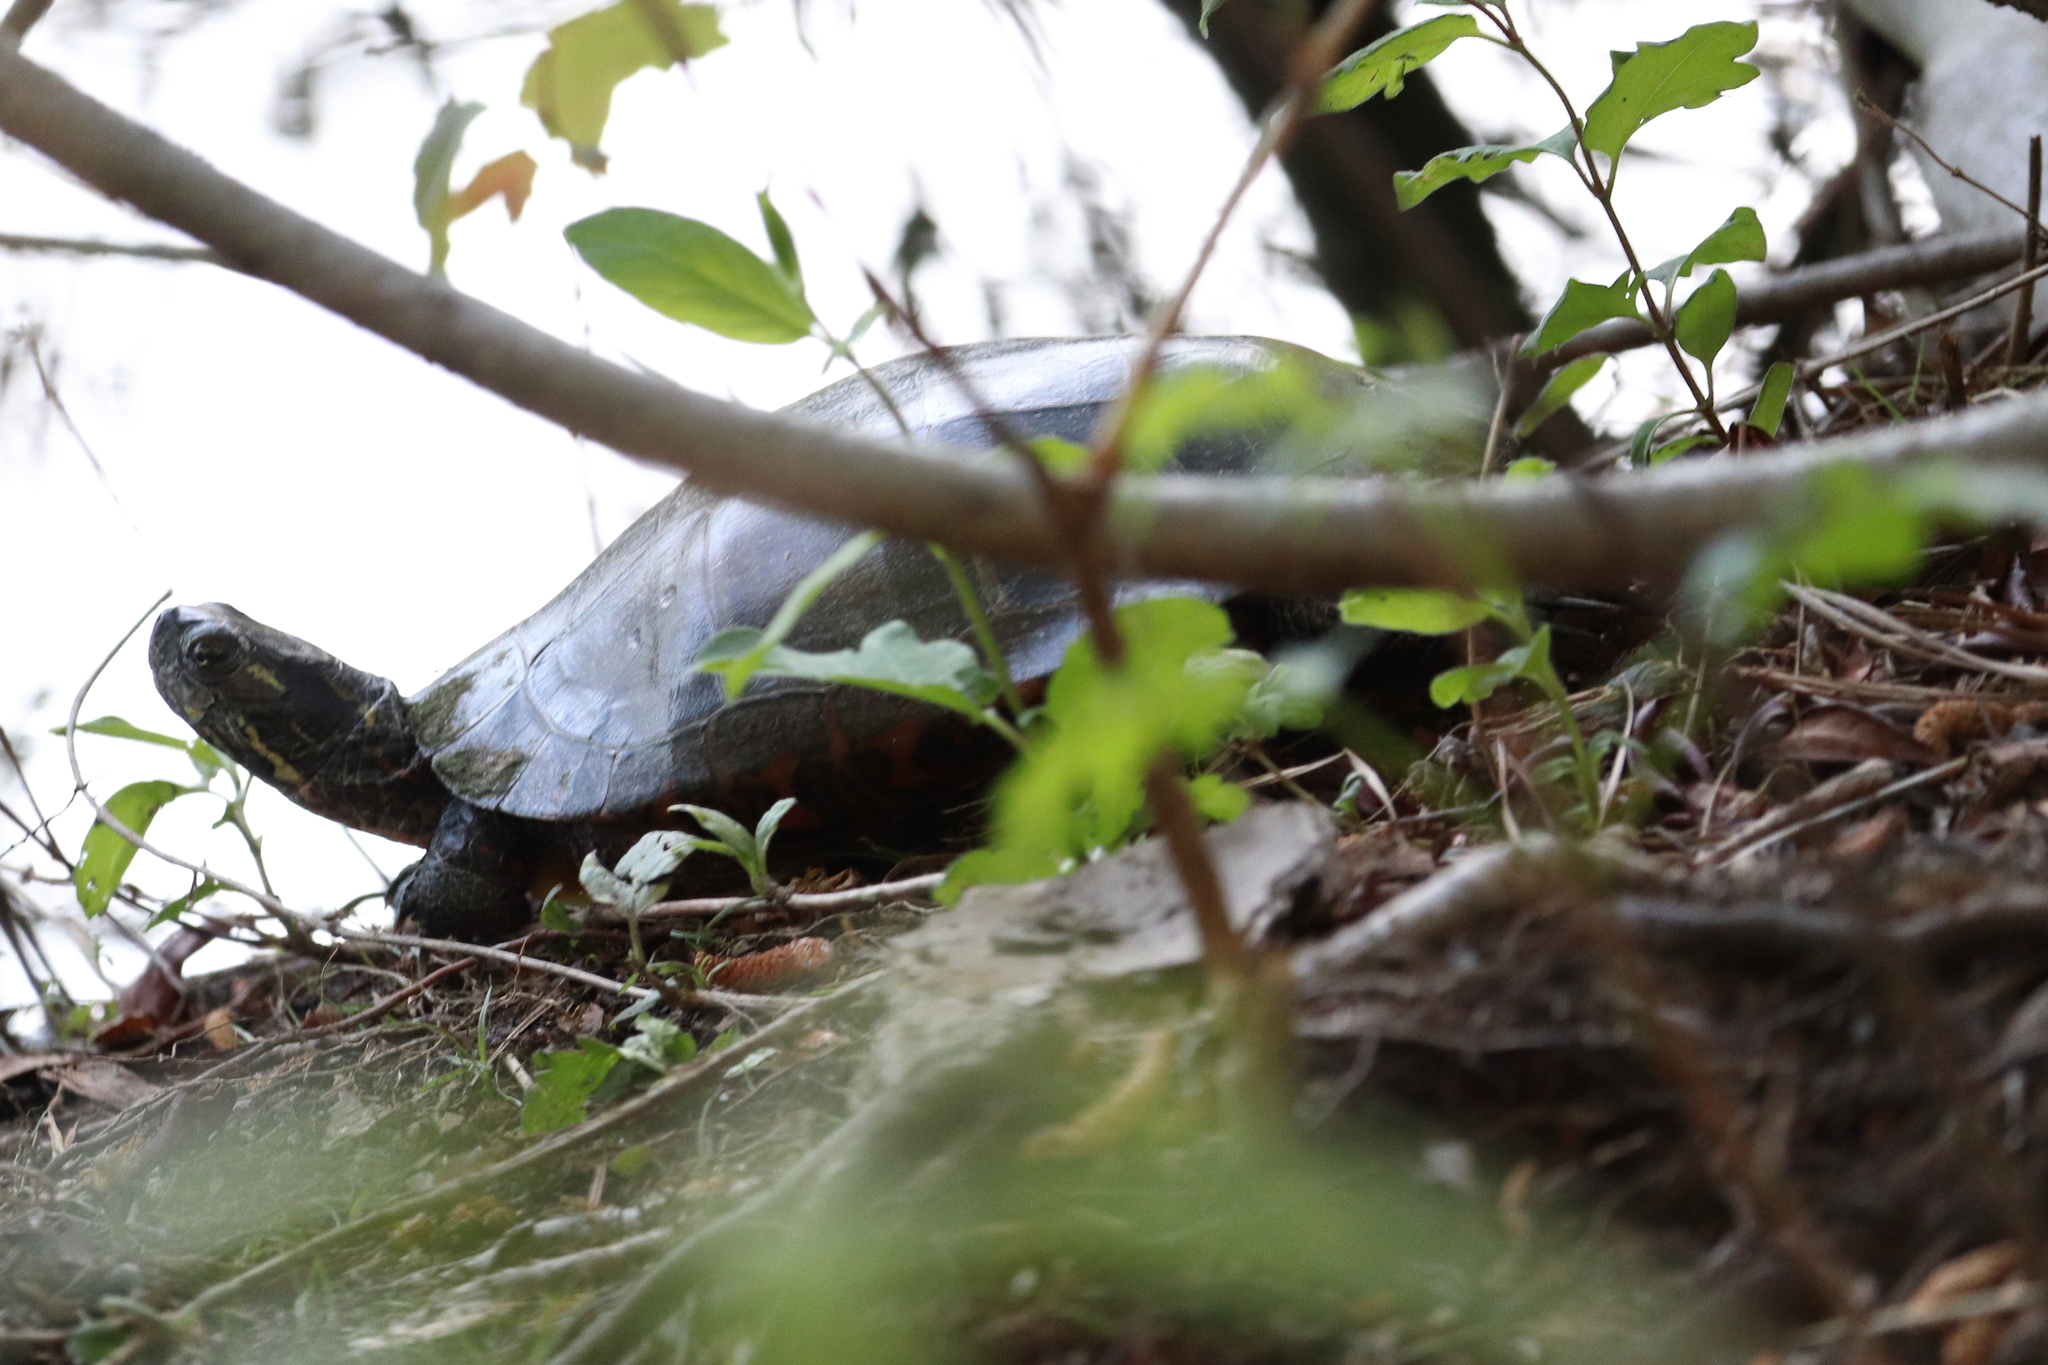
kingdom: Animalia
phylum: Chordata
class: Testudines
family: Emydidae
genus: Chrysemys
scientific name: Chrysemys picta
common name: Painted turtle
